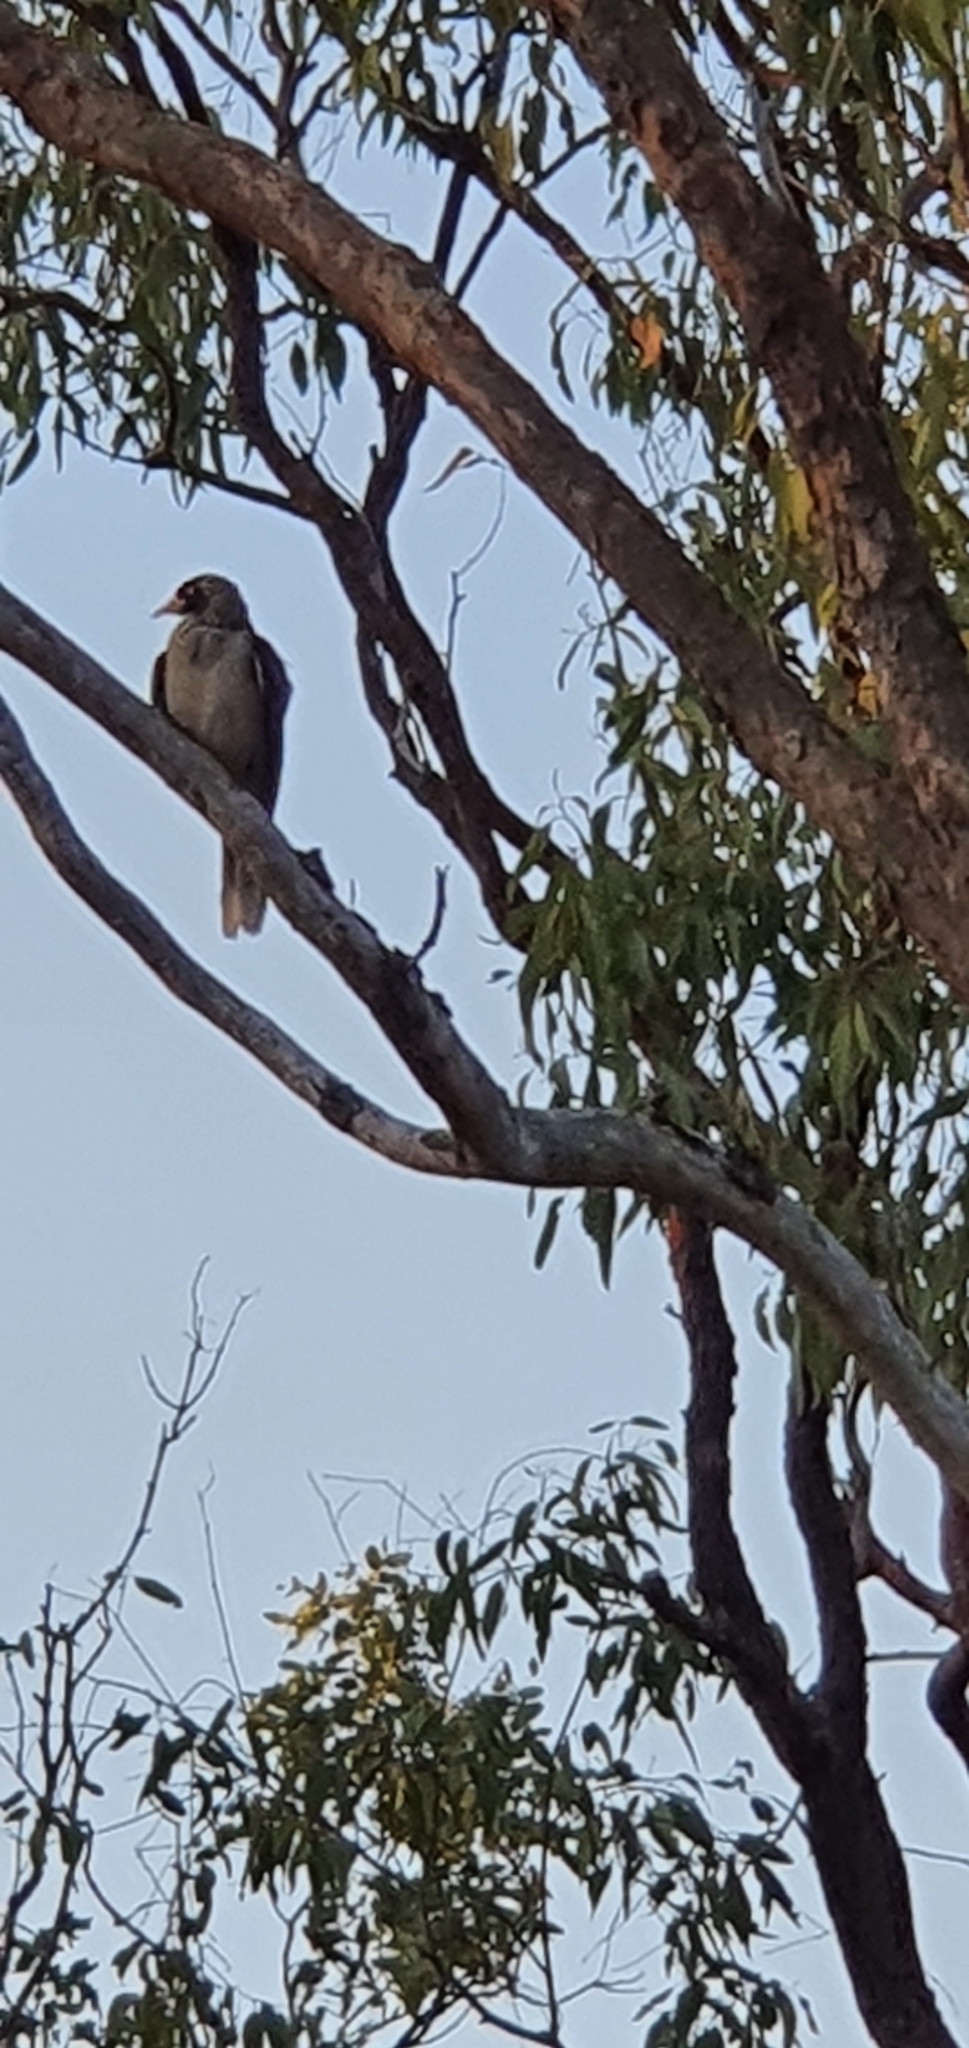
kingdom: Animalia
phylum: Chordata
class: Aves
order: Passeriformes
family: Meliphagidae
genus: Manorina
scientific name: Manorina melanocephala
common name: Noisy miner
